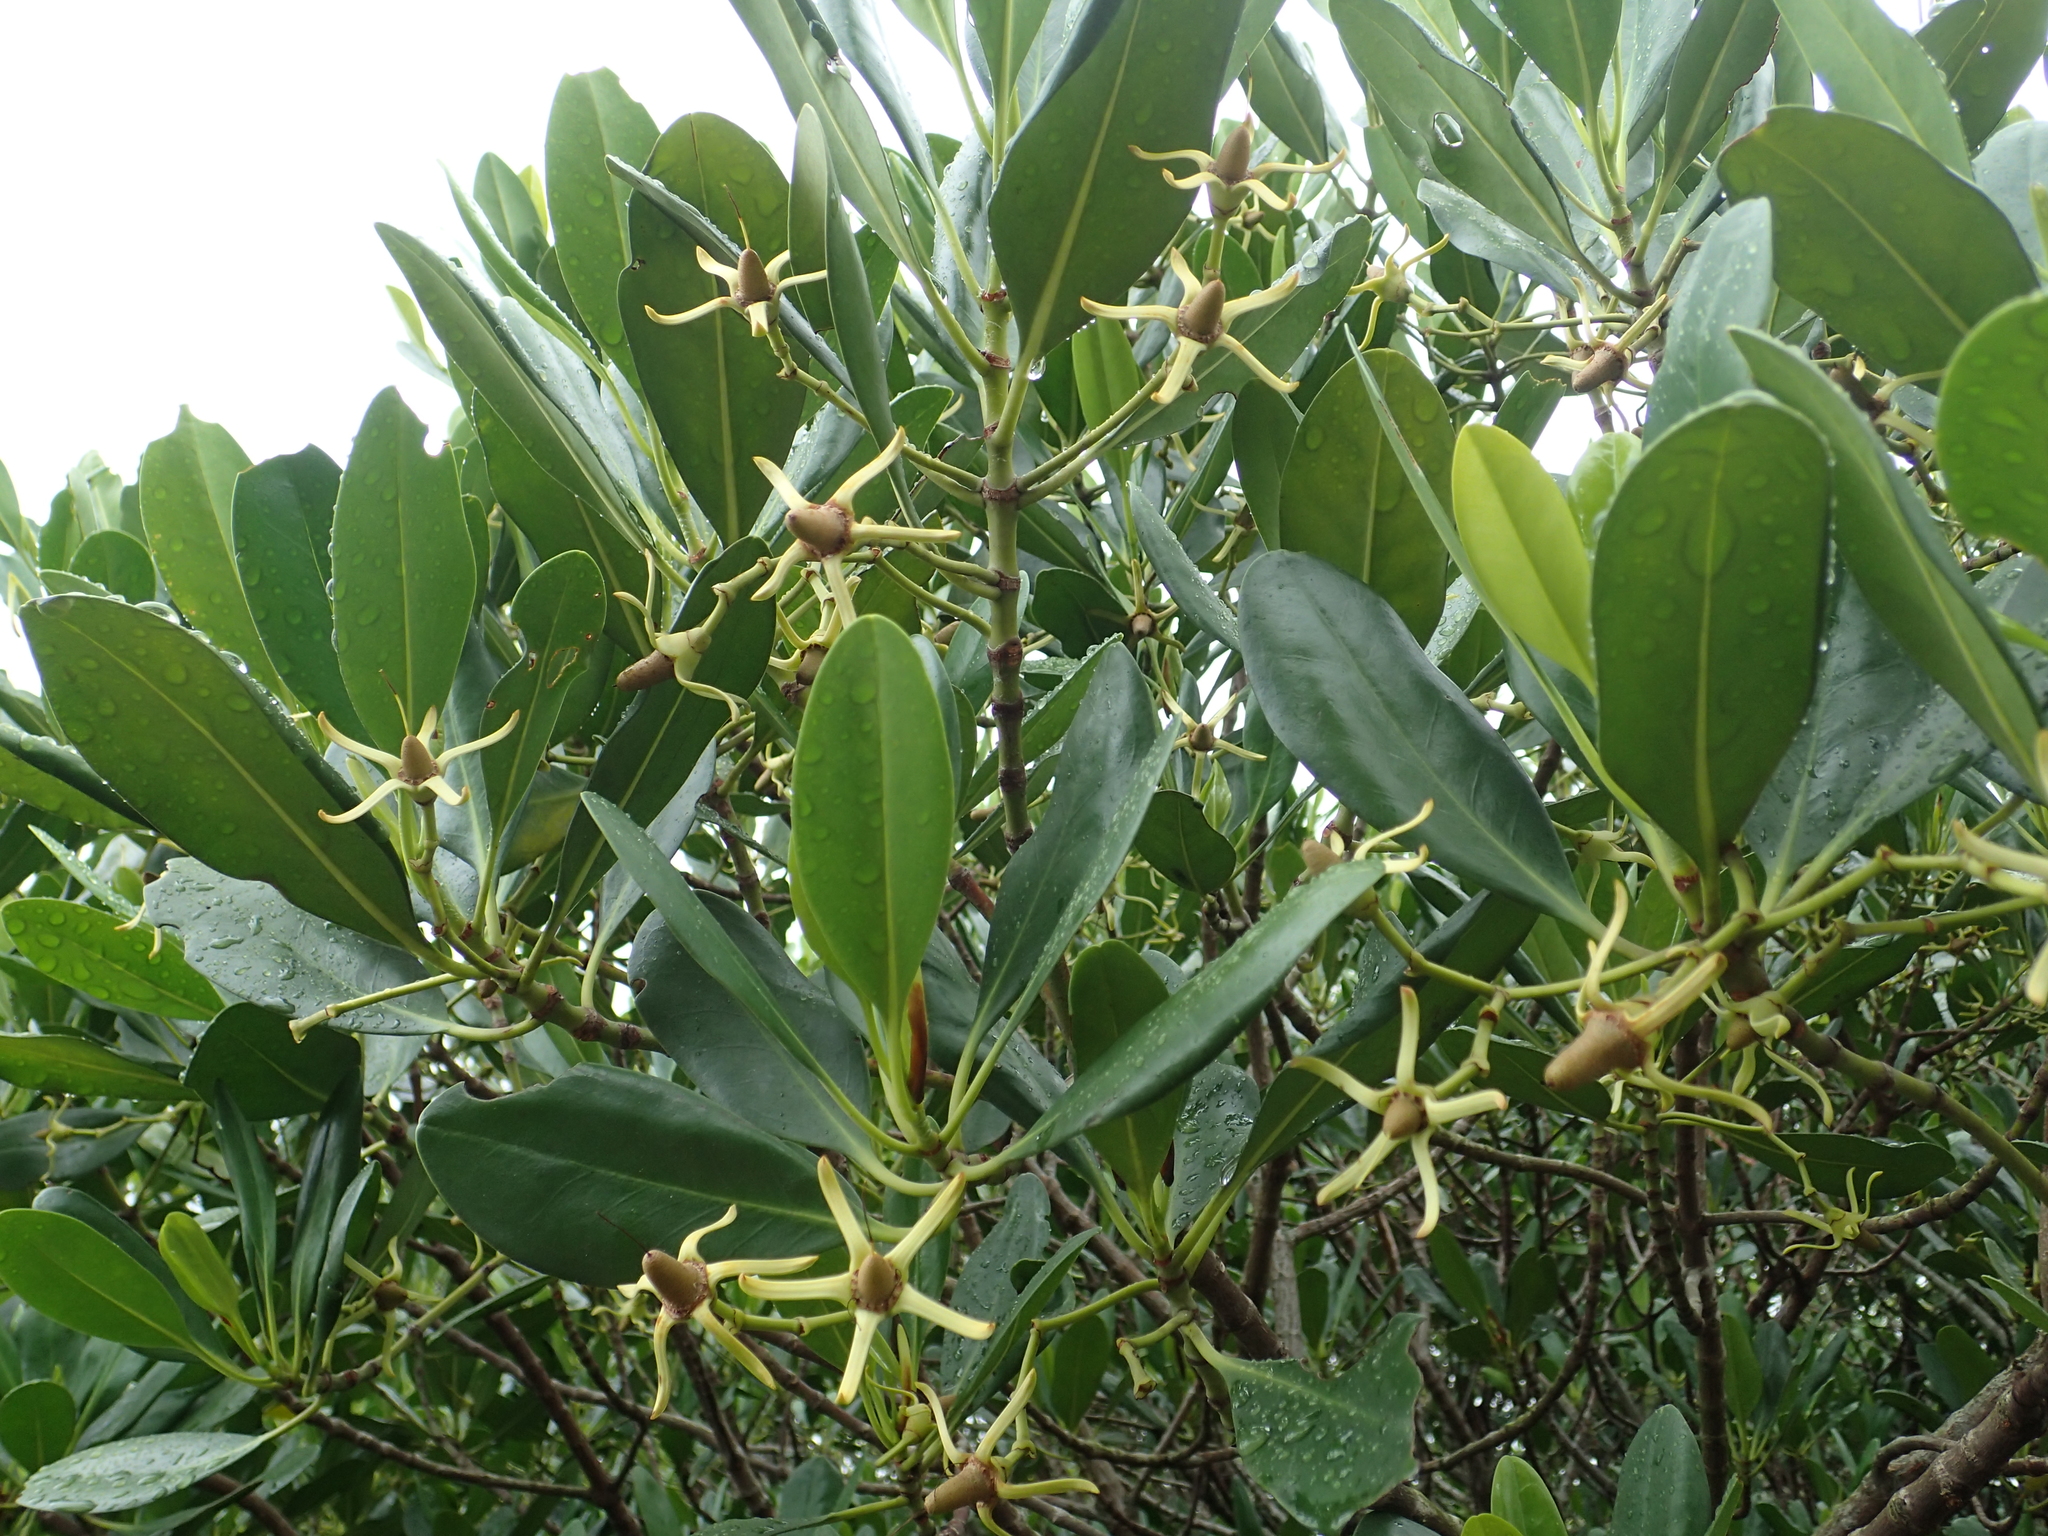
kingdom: Plantae
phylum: Tracheophyta
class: Magnoliopsida
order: Malpighiales
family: Rhizophoraceae
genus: Kandelia
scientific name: Kandelia obovata
